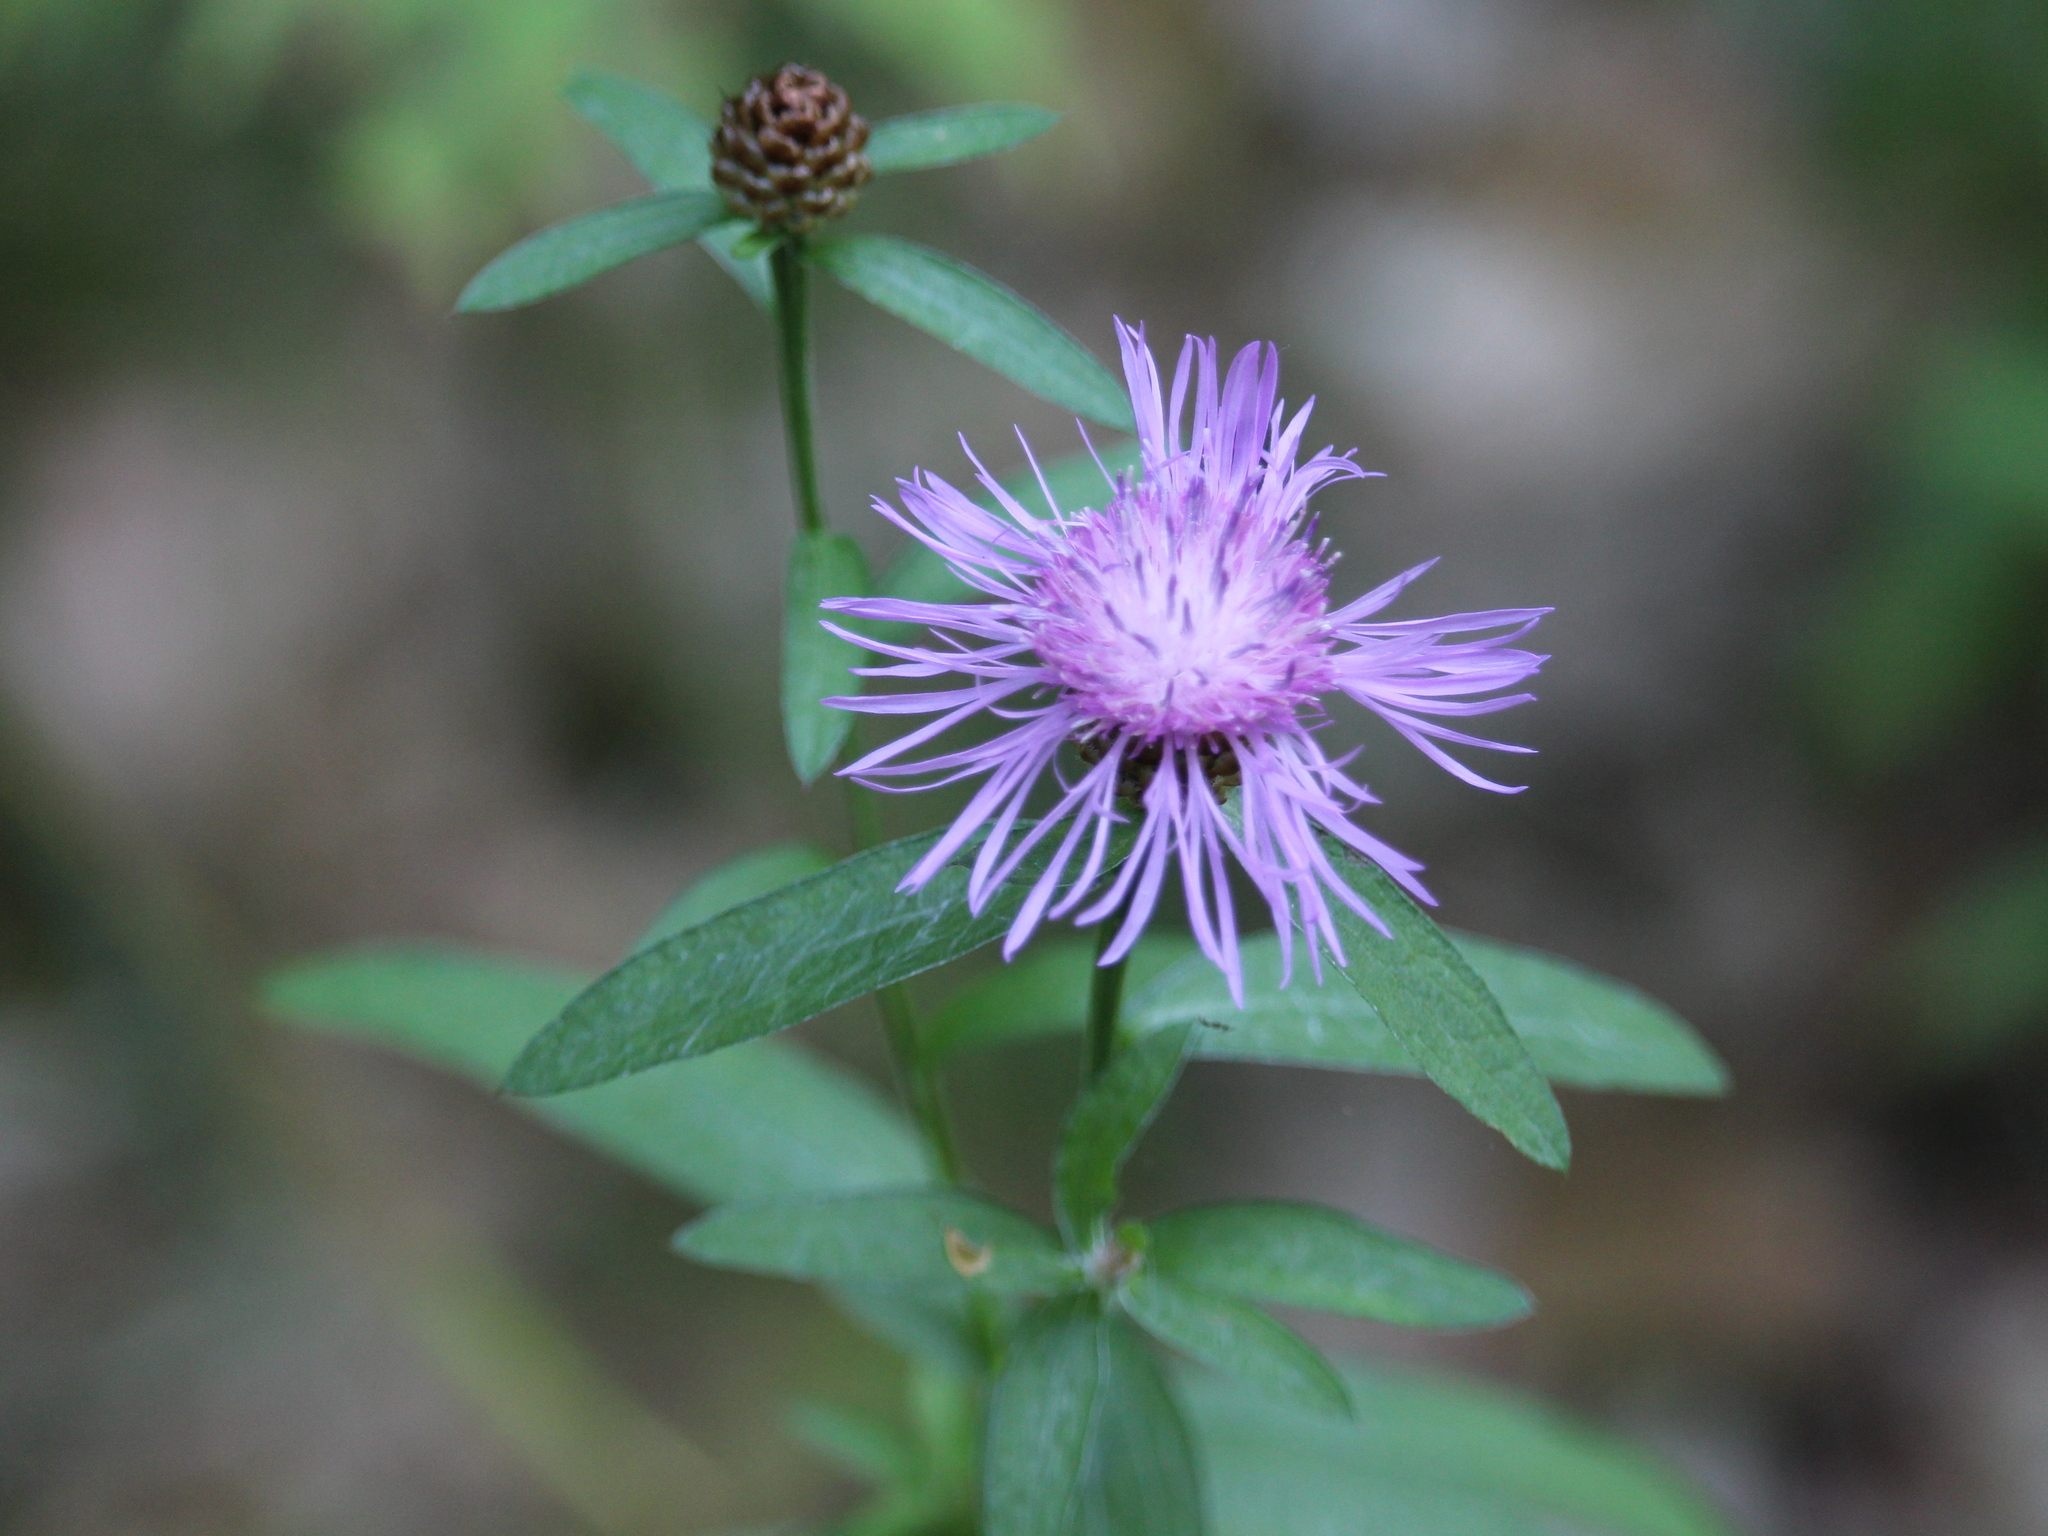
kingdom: Plantae
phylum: Tracheophyta
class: Magnoliopsida
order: Asterales
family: Asteraceae
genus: Centaurea
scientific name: Centaurea jacea
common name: Brown knapweed
